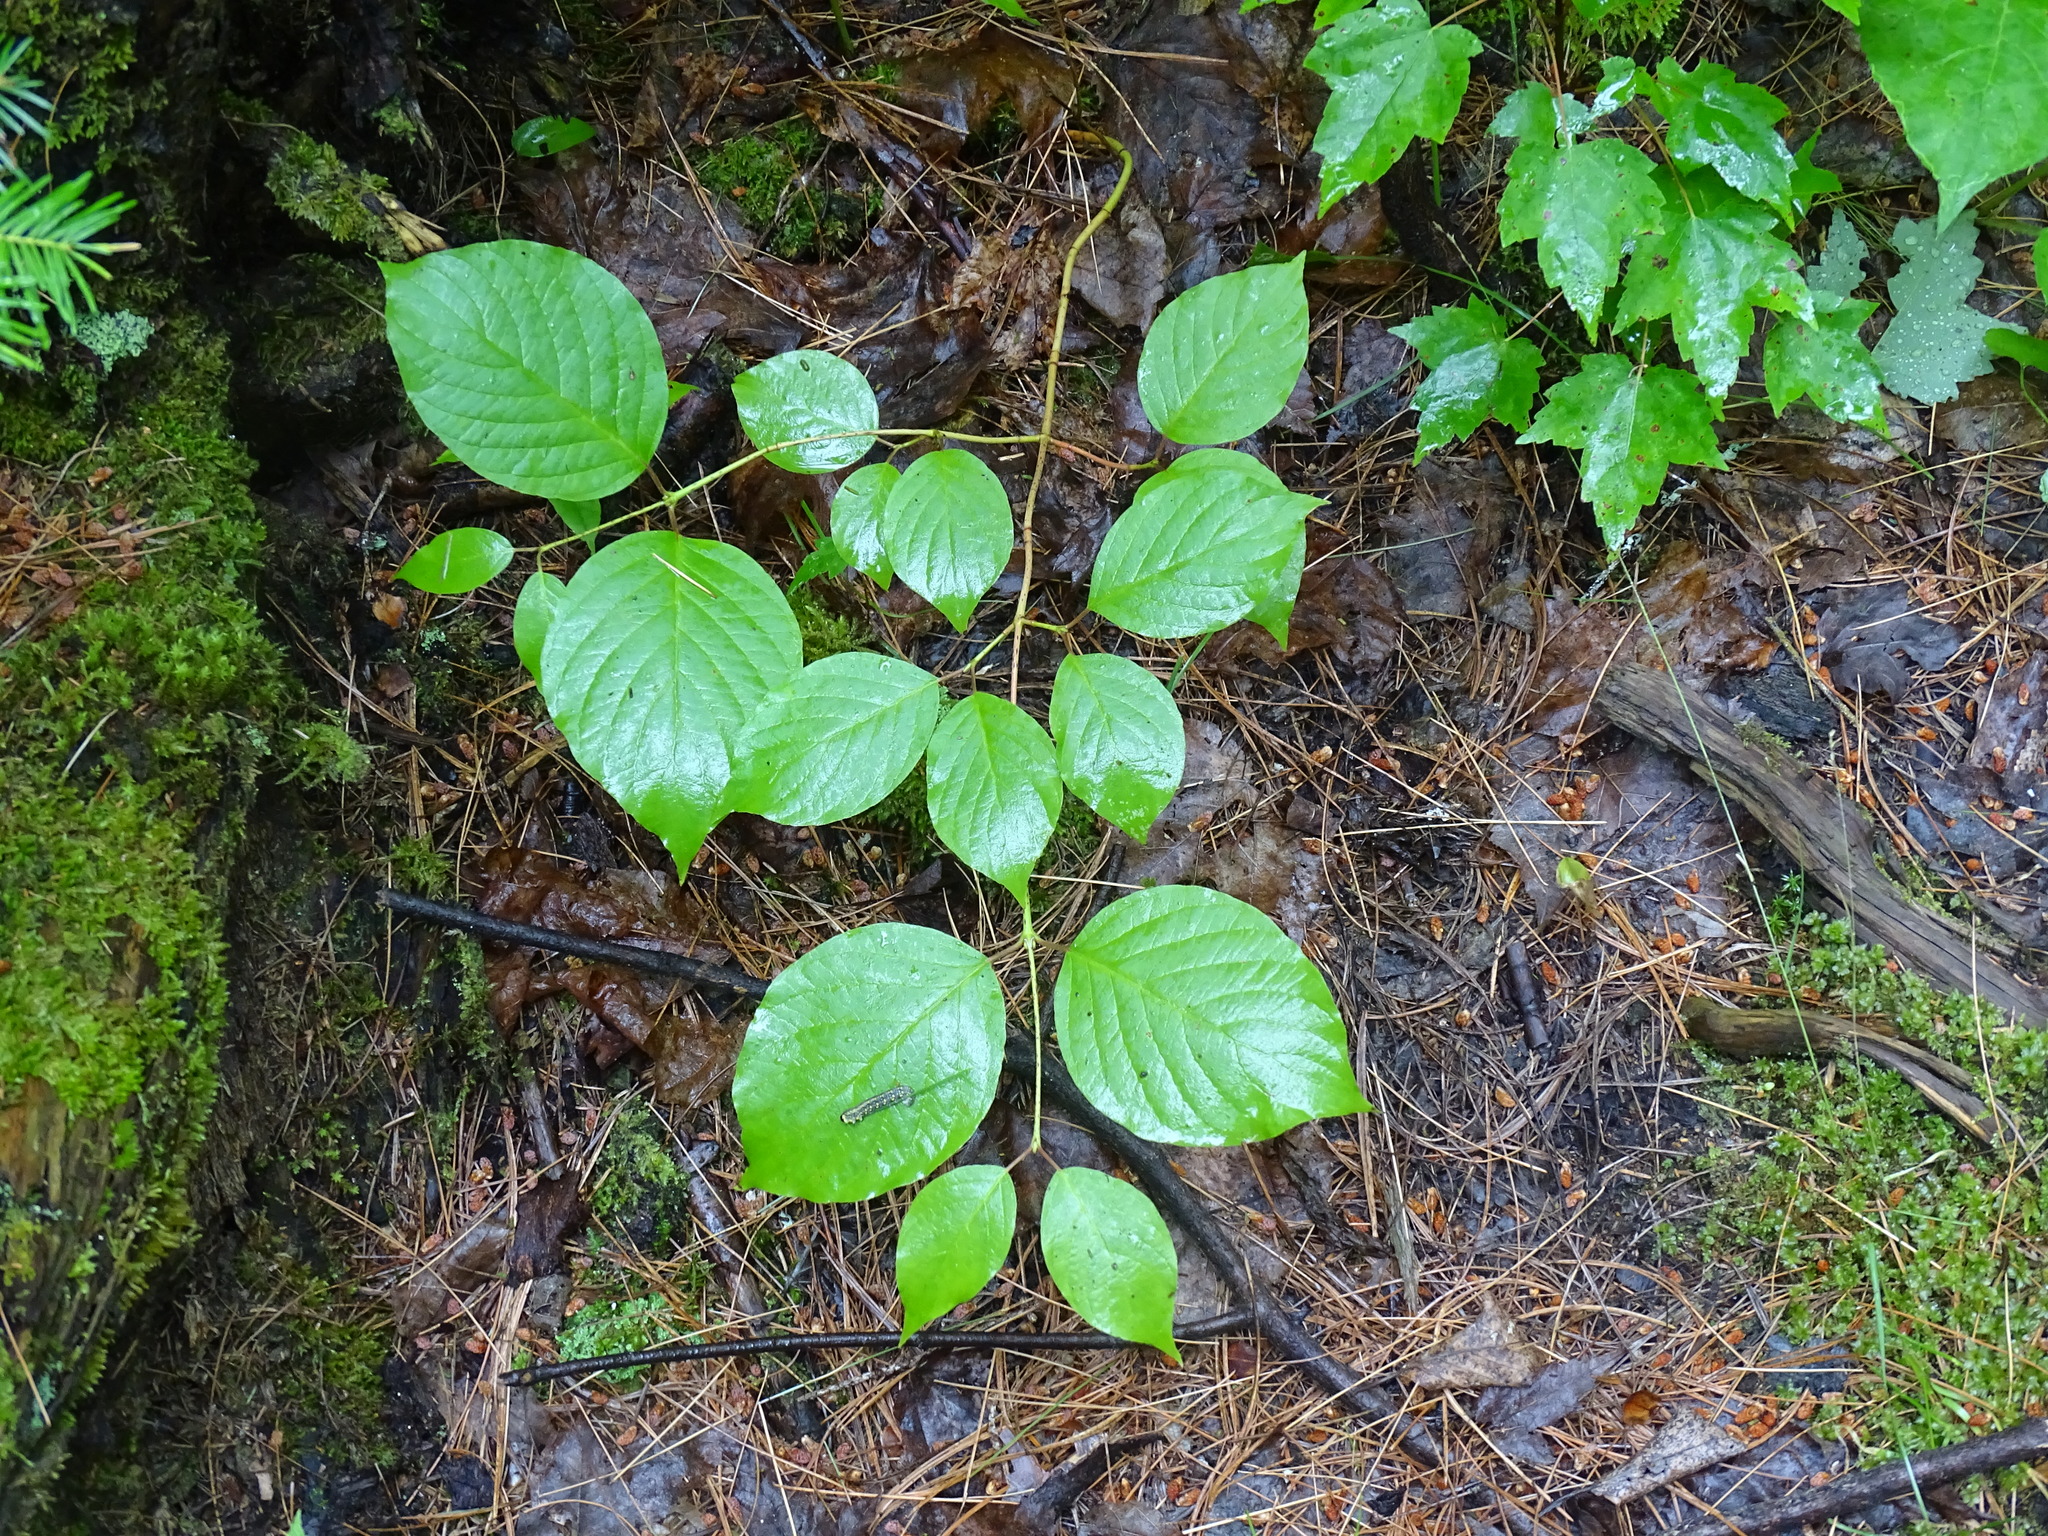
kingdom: Plantae
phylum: Tracheophyta
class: Magnoliopsida
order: Cornales
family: Cornaceae
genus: Cornus
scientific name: Cornus rugosa
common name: Round-leaf dogwood
